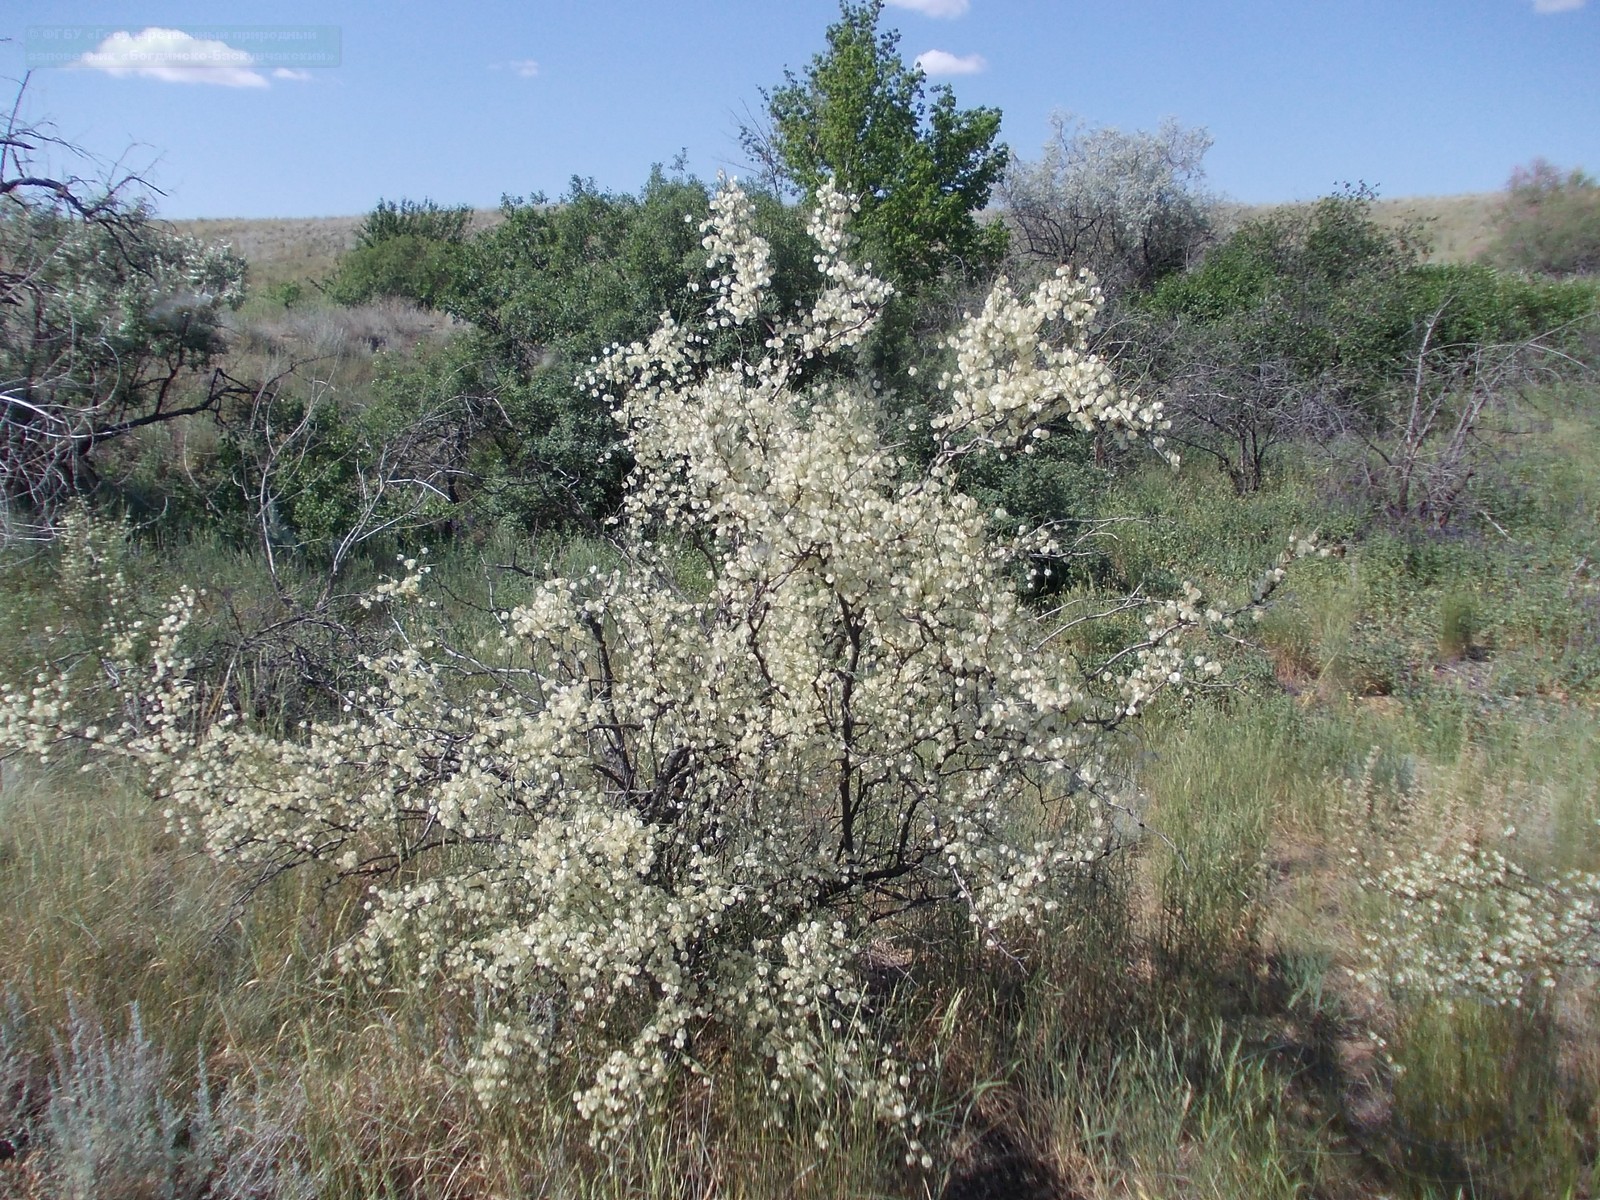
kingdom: Plantae
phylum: Tracheophyta
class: Magnoliopsida
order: Caryophyllales
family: Polygonaceae
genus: Calligonum
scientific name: Calligonum aphyllum
